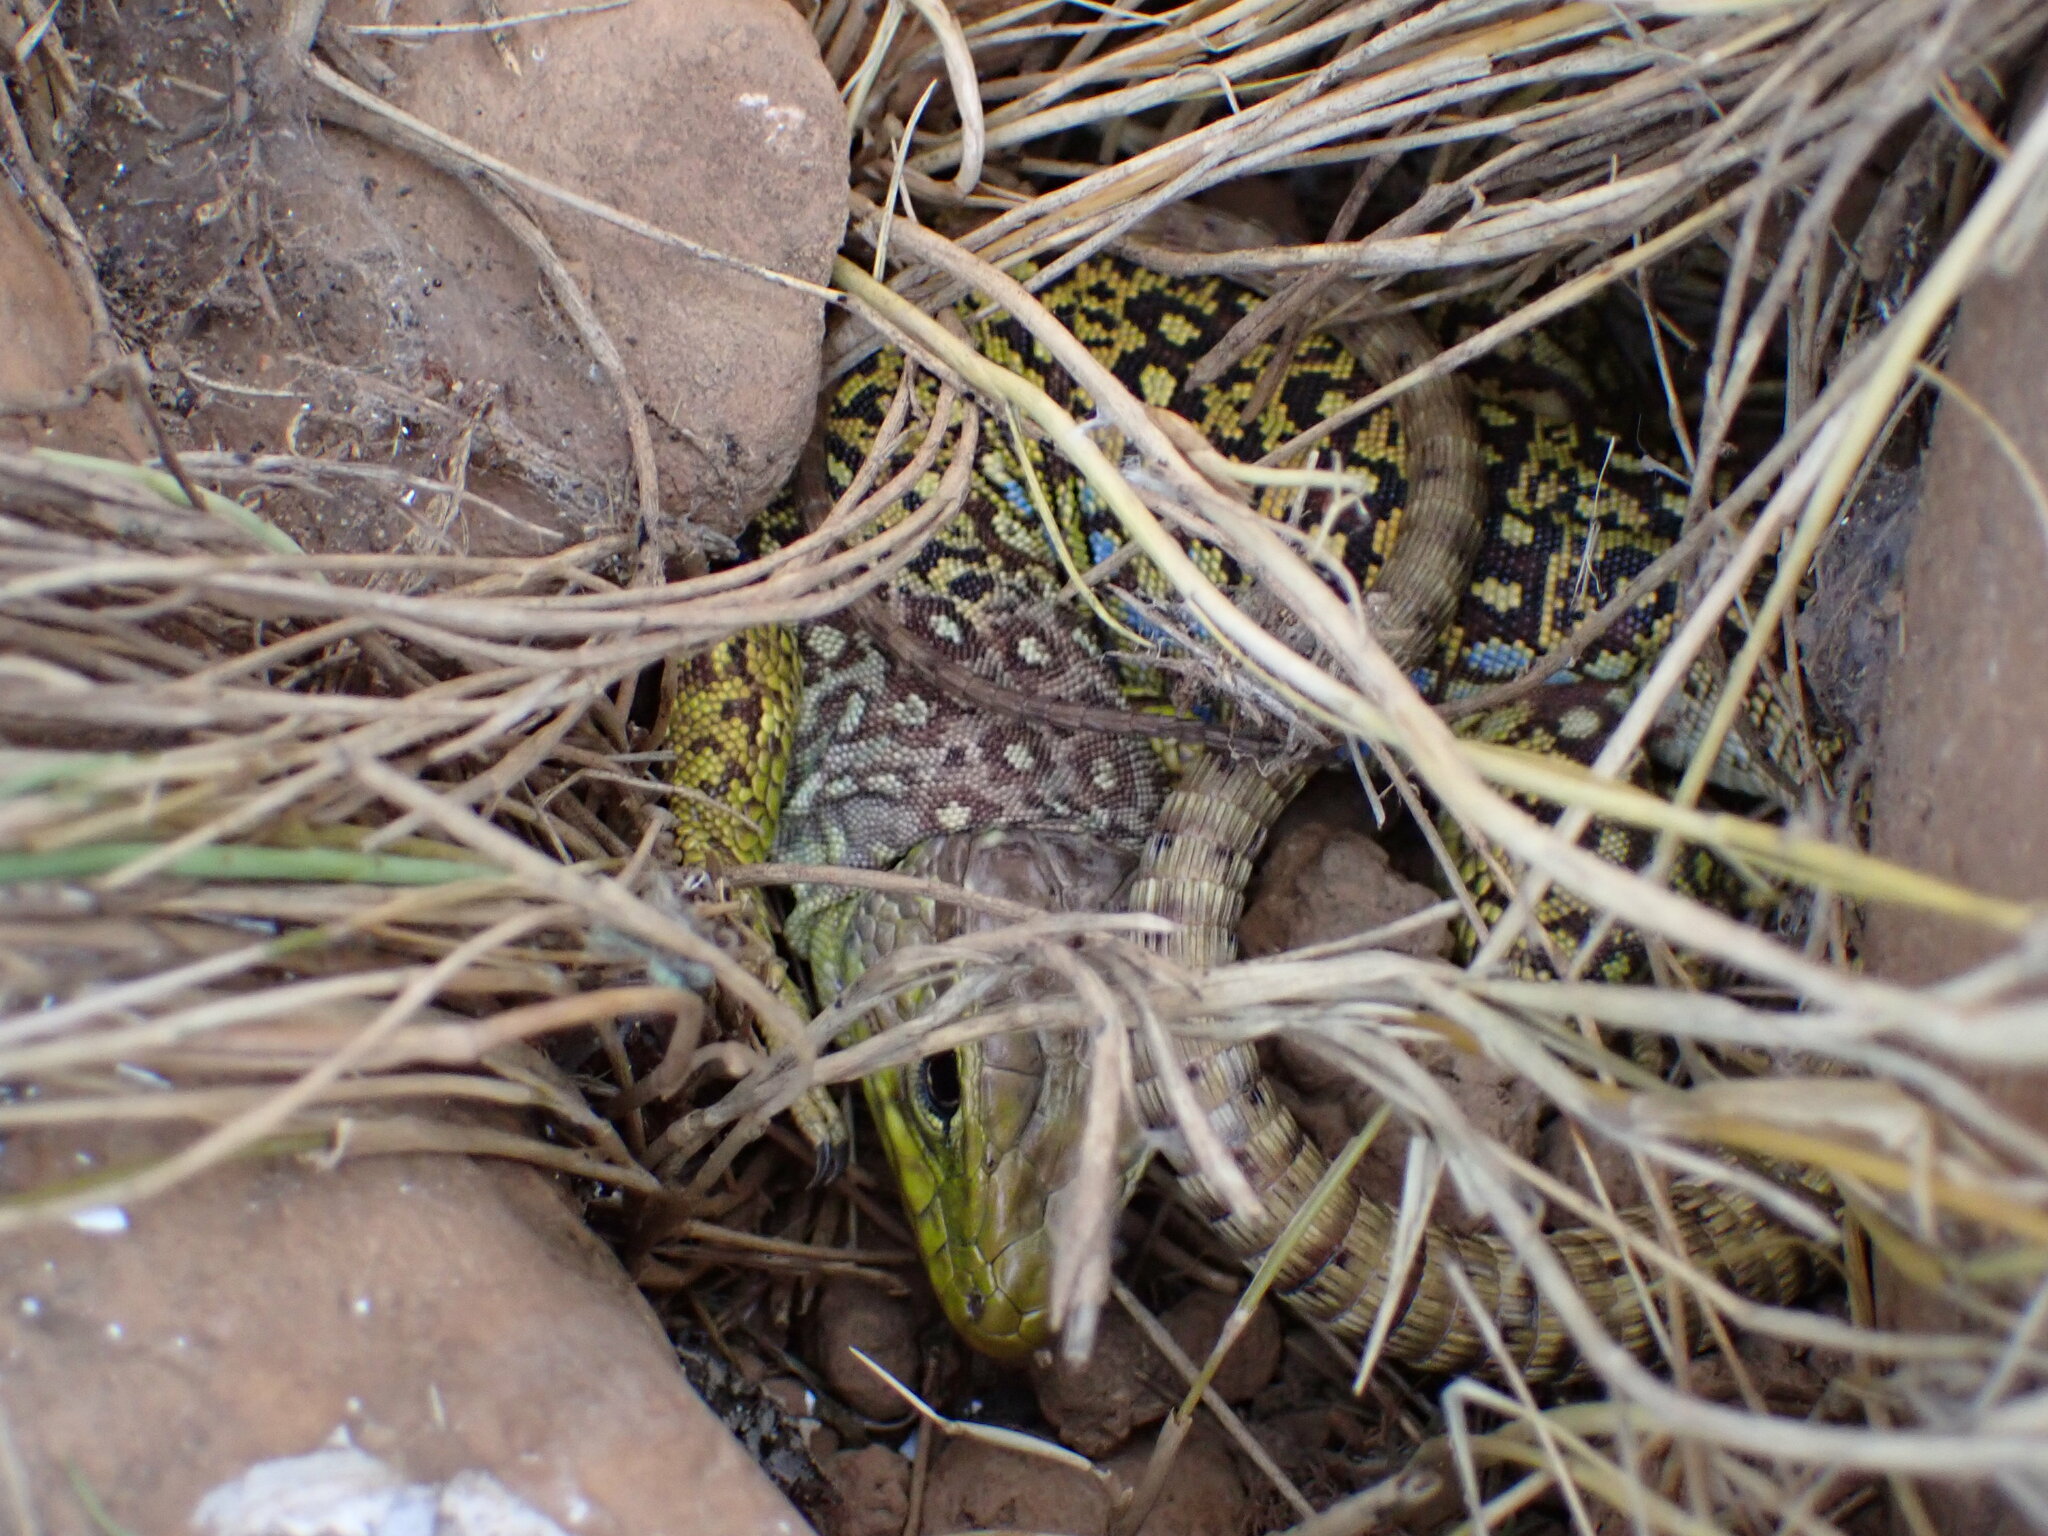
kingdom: Animalia
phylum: Chordata
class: Squamata
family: Lacertidae
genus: Timon
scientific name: Timon lepidus
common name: Ocellated lizard
